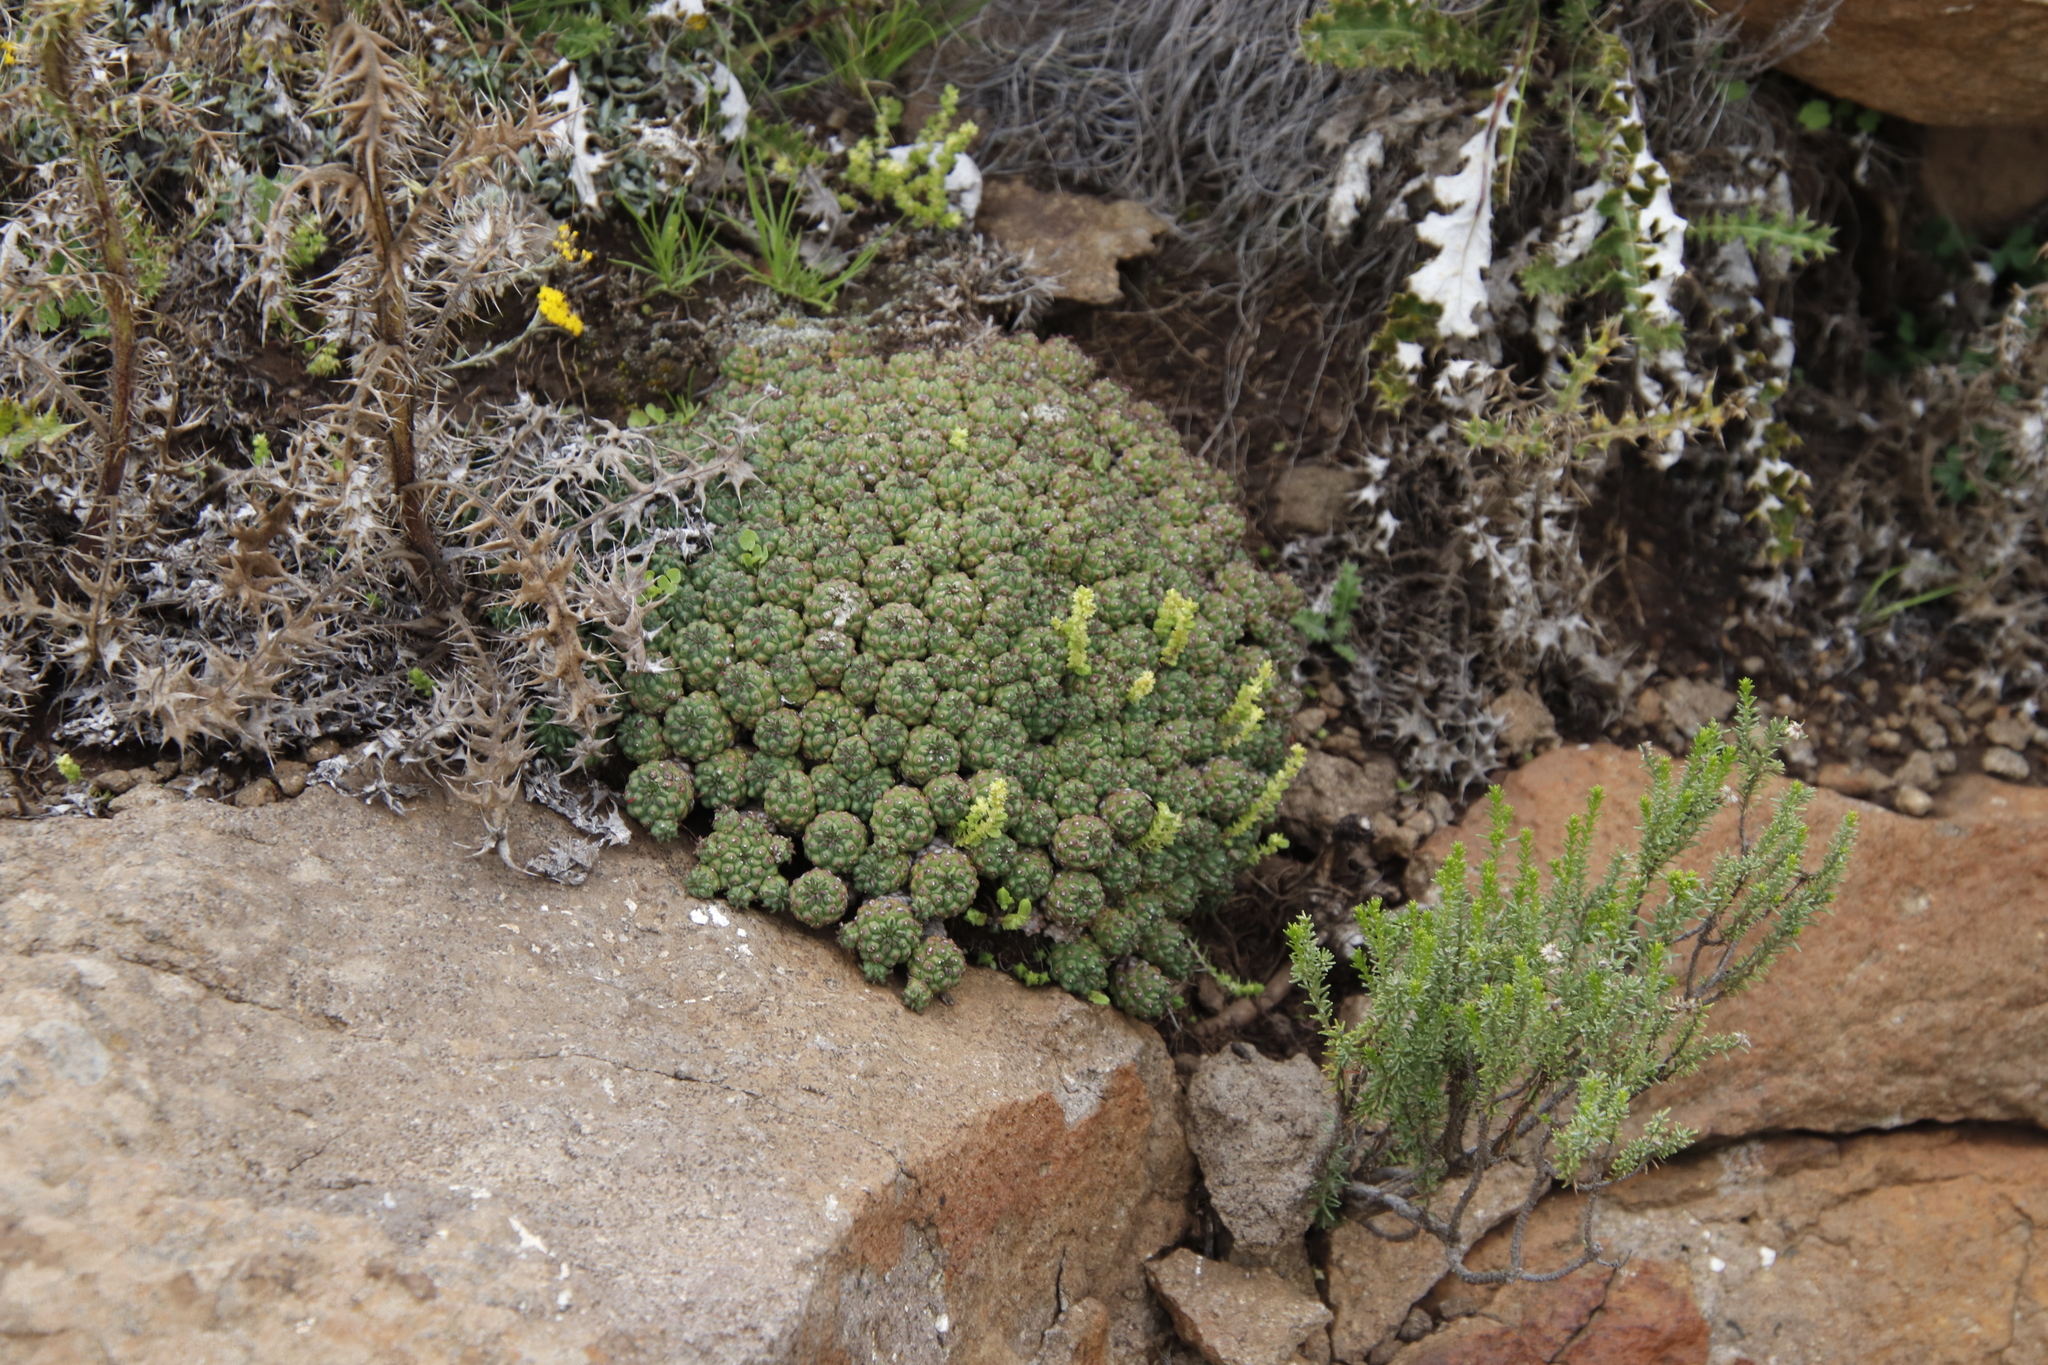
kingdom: Plantae
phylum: Tracheophyta
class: Magnoliopsida
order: Malpighiales
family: Euphorbiaceae
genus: Euphorbia
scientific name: Euphorbia clavarioides
